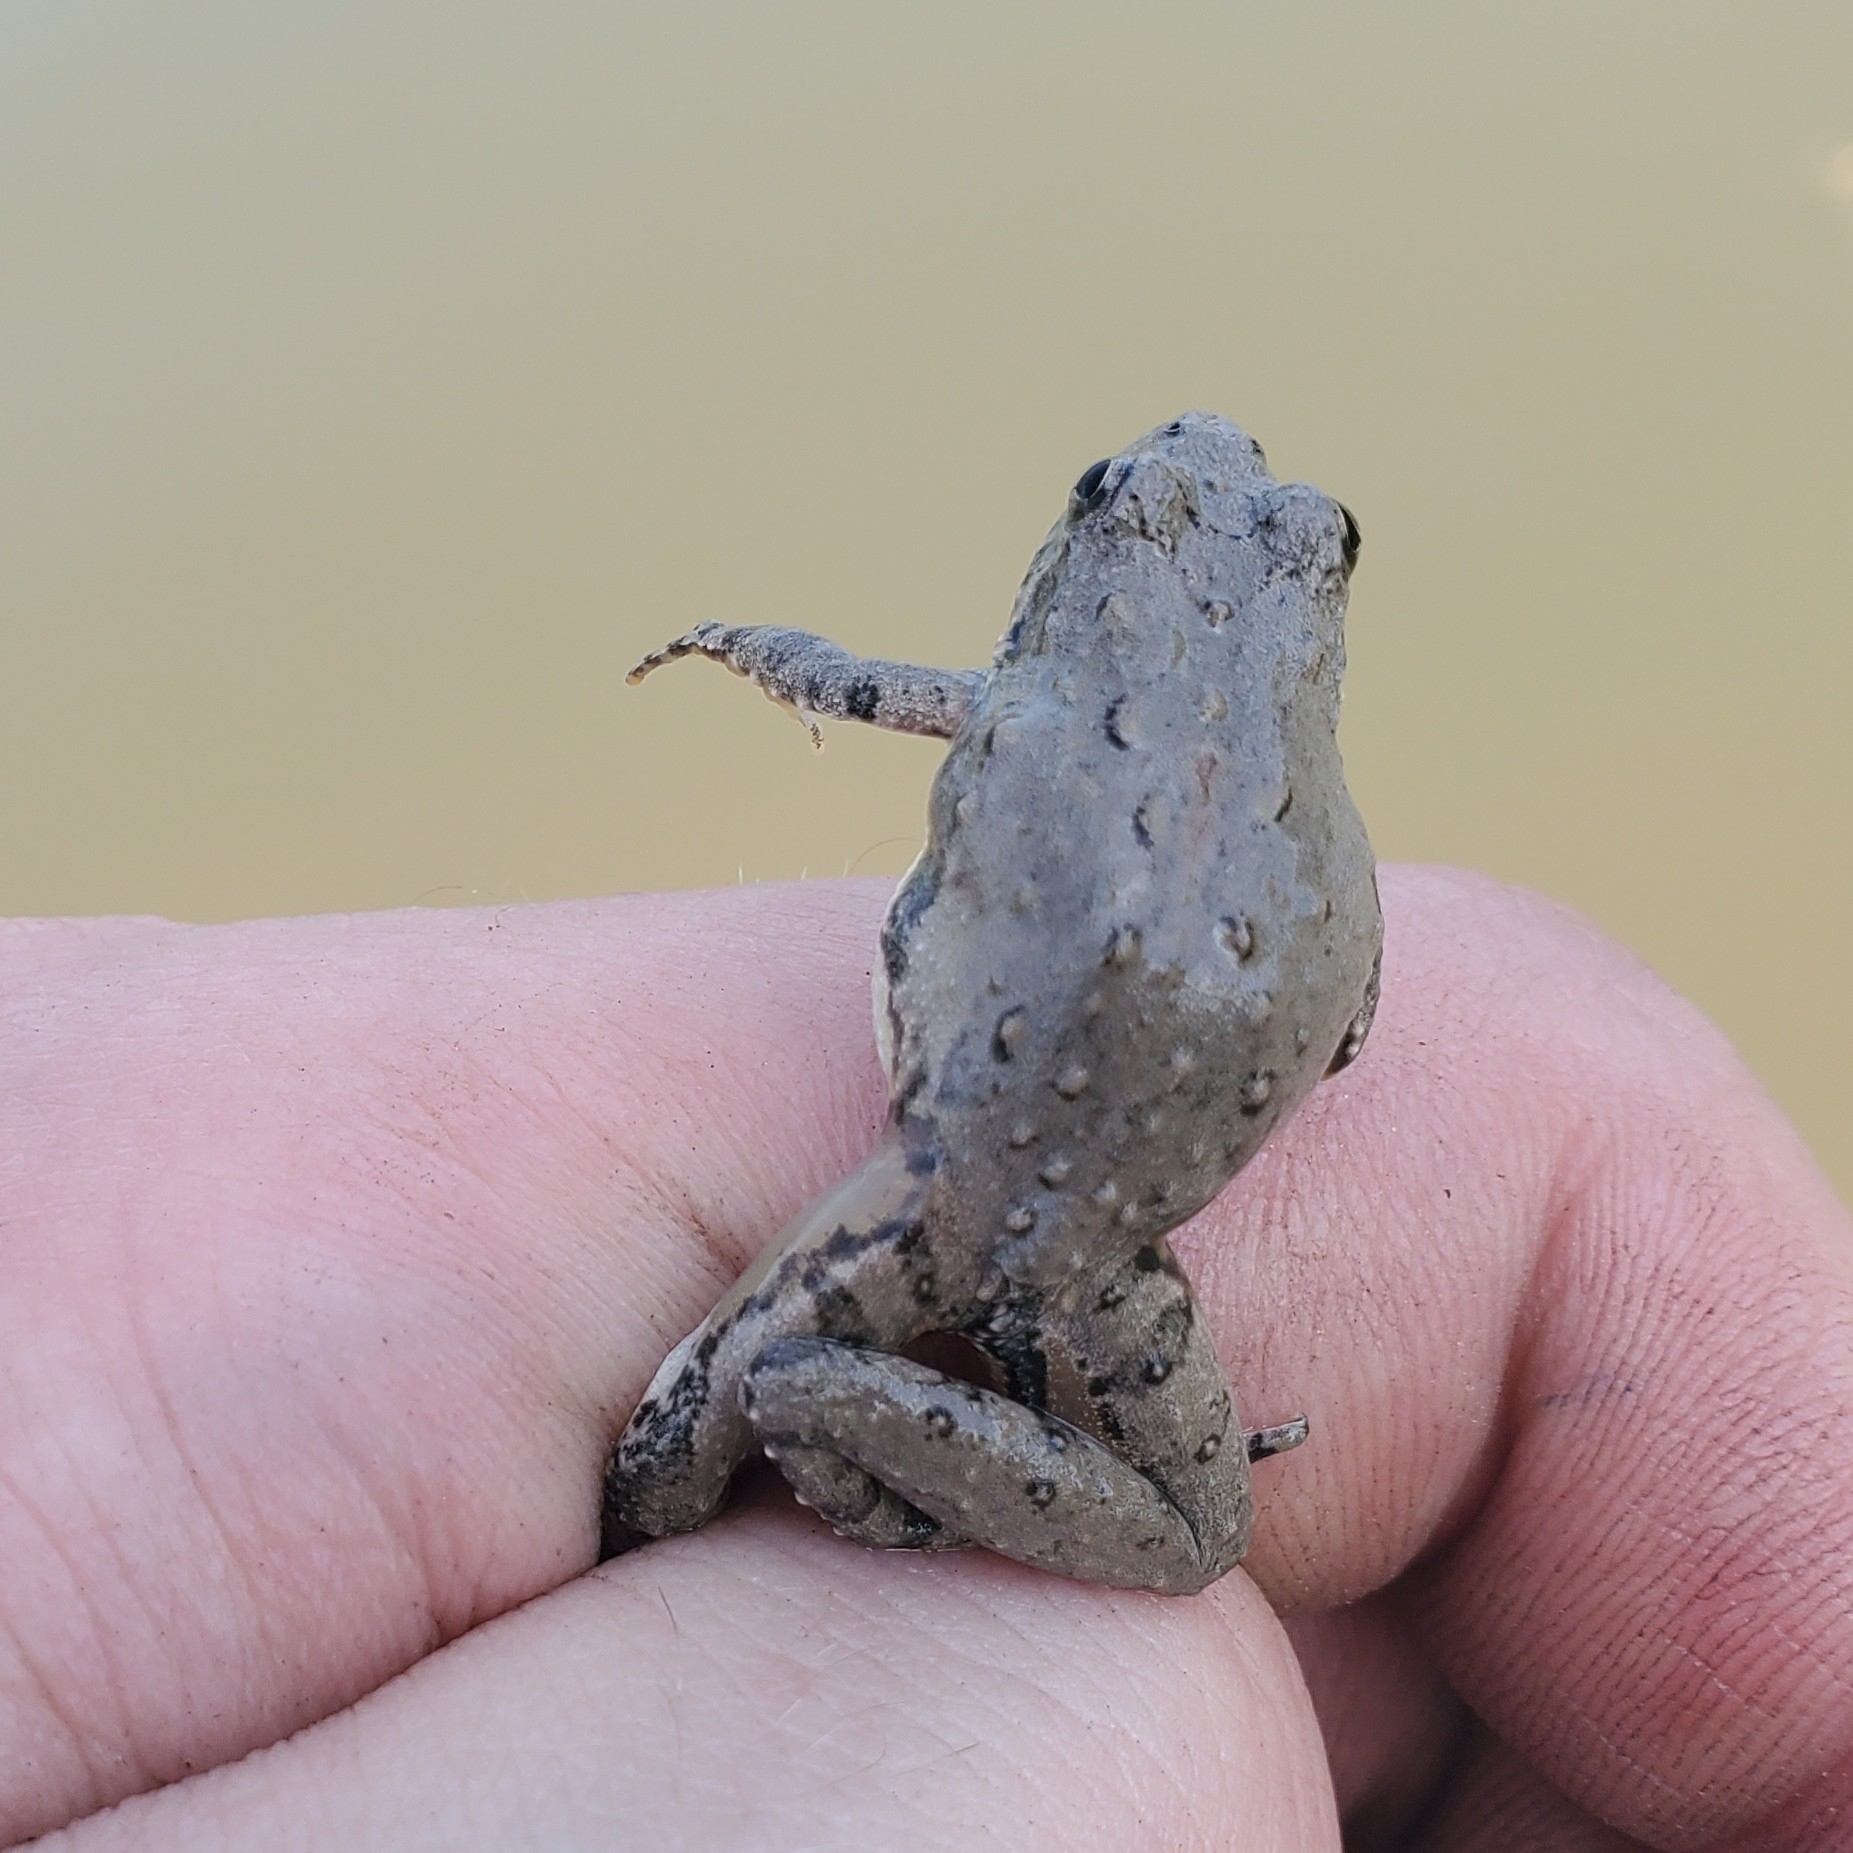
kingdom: Animalia
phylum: Chordata
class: Amphibia
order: Anura
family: Hylidae
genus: Acris
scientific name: Acris blanchardi
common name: Blanchard's cricket frog
